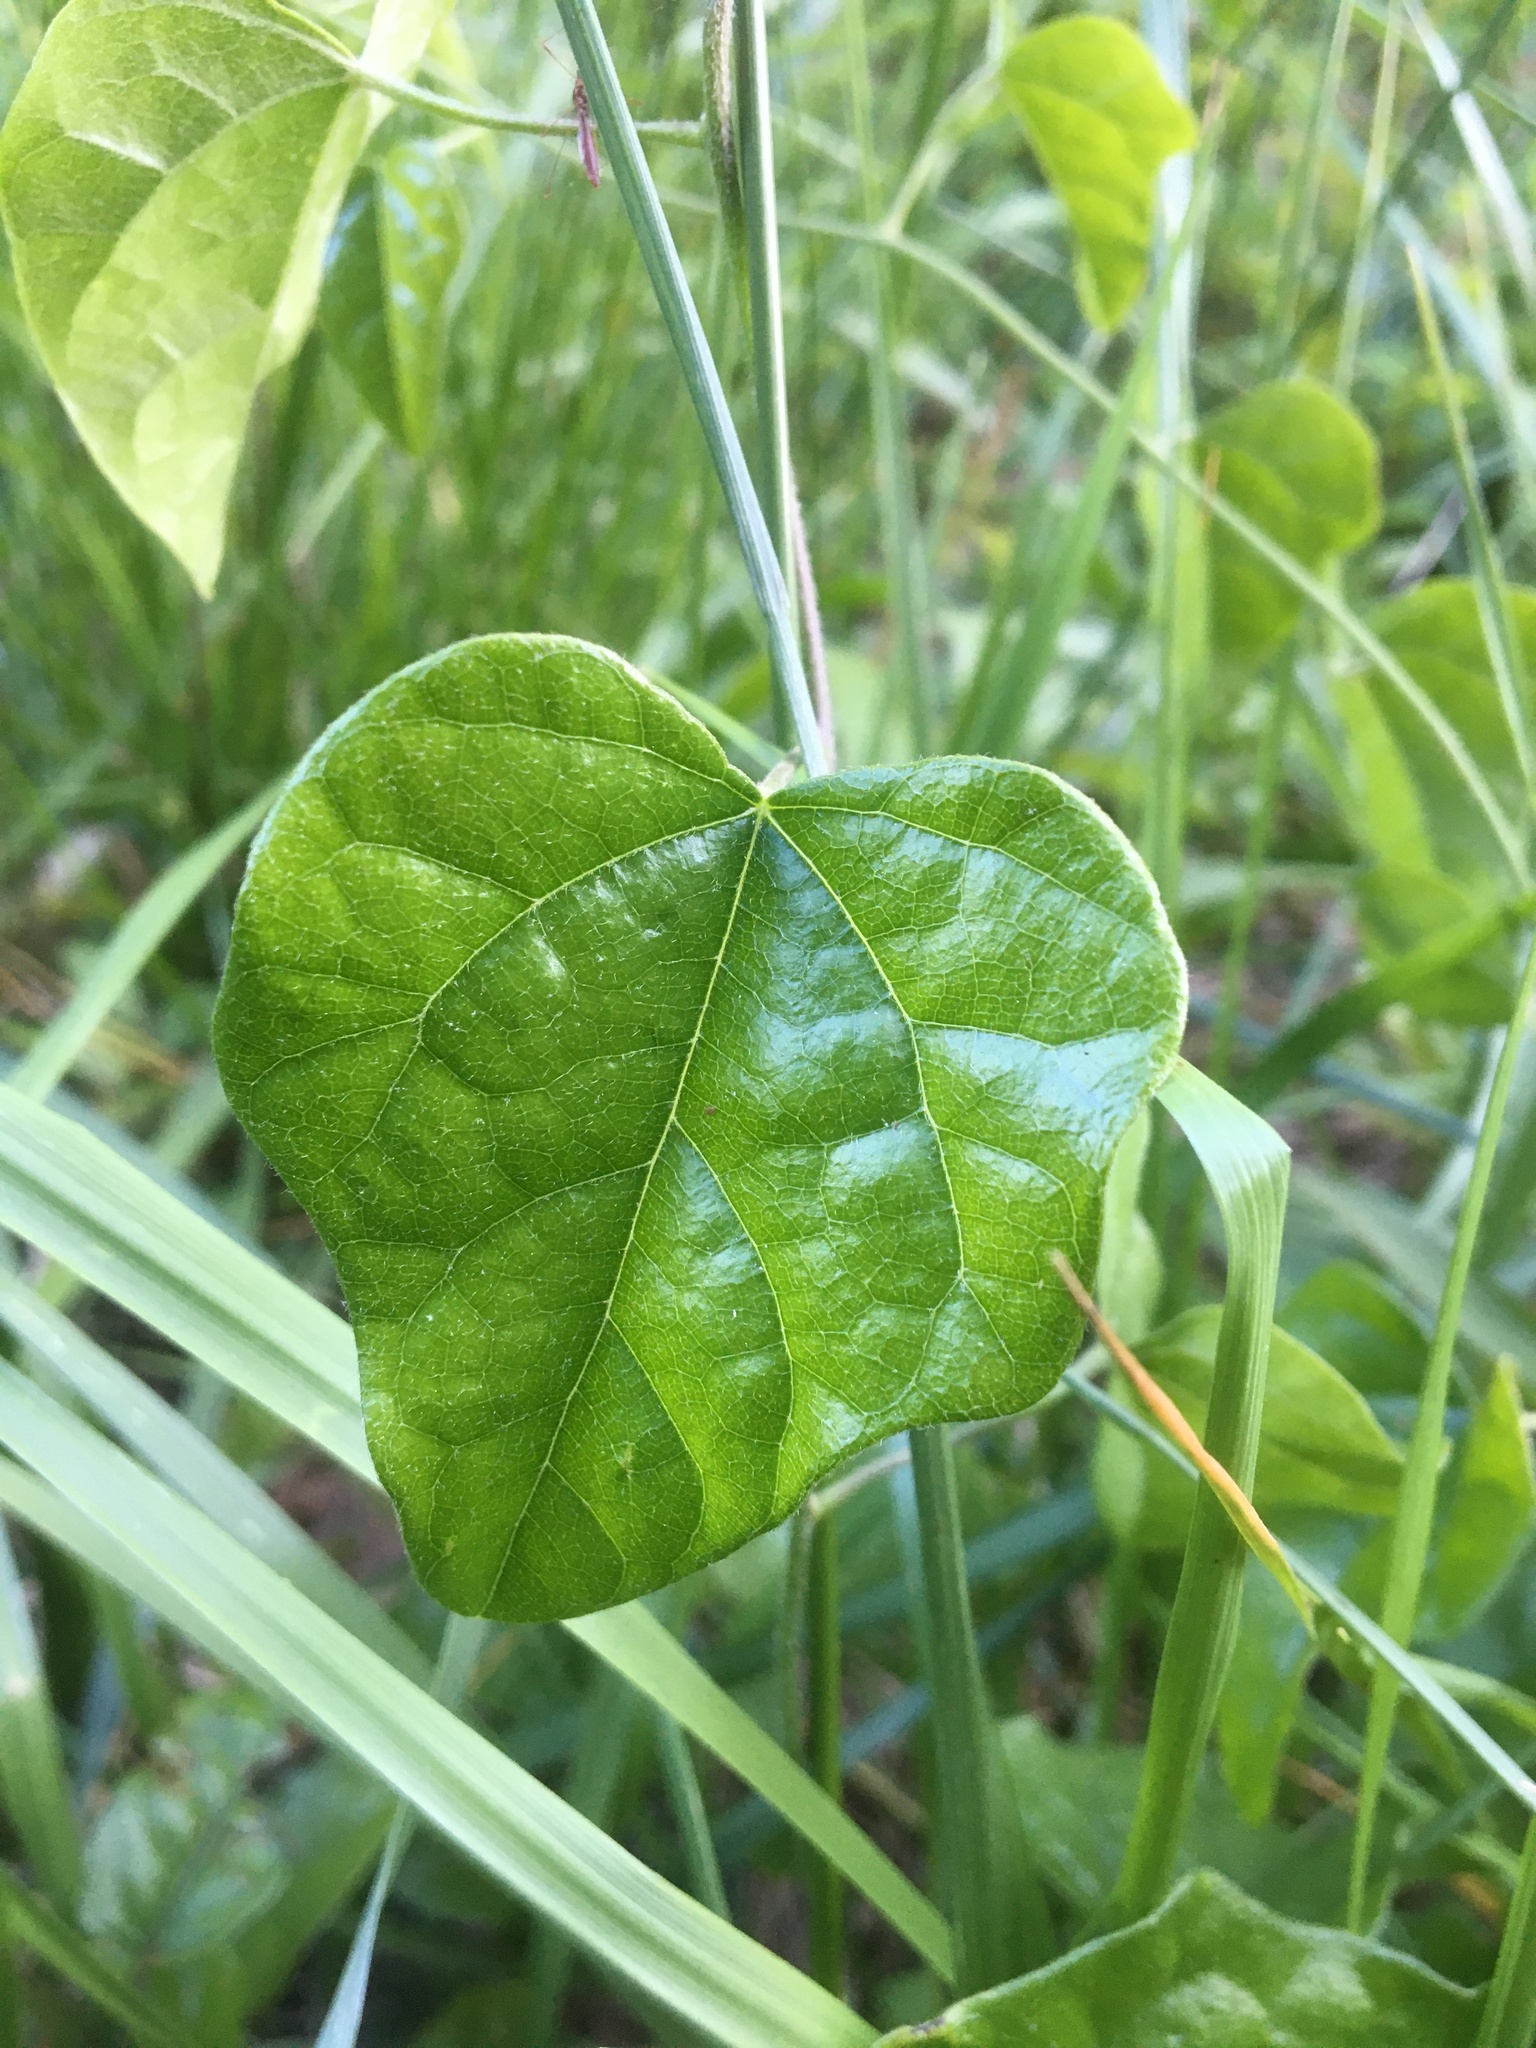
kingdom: Plantae
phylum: Tracheophyta
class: Magnoliopsida
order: Ranunculales
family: Menispermaceae
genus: Cocculus
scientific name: Cocculus carolinus
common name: Carolina moonseed
